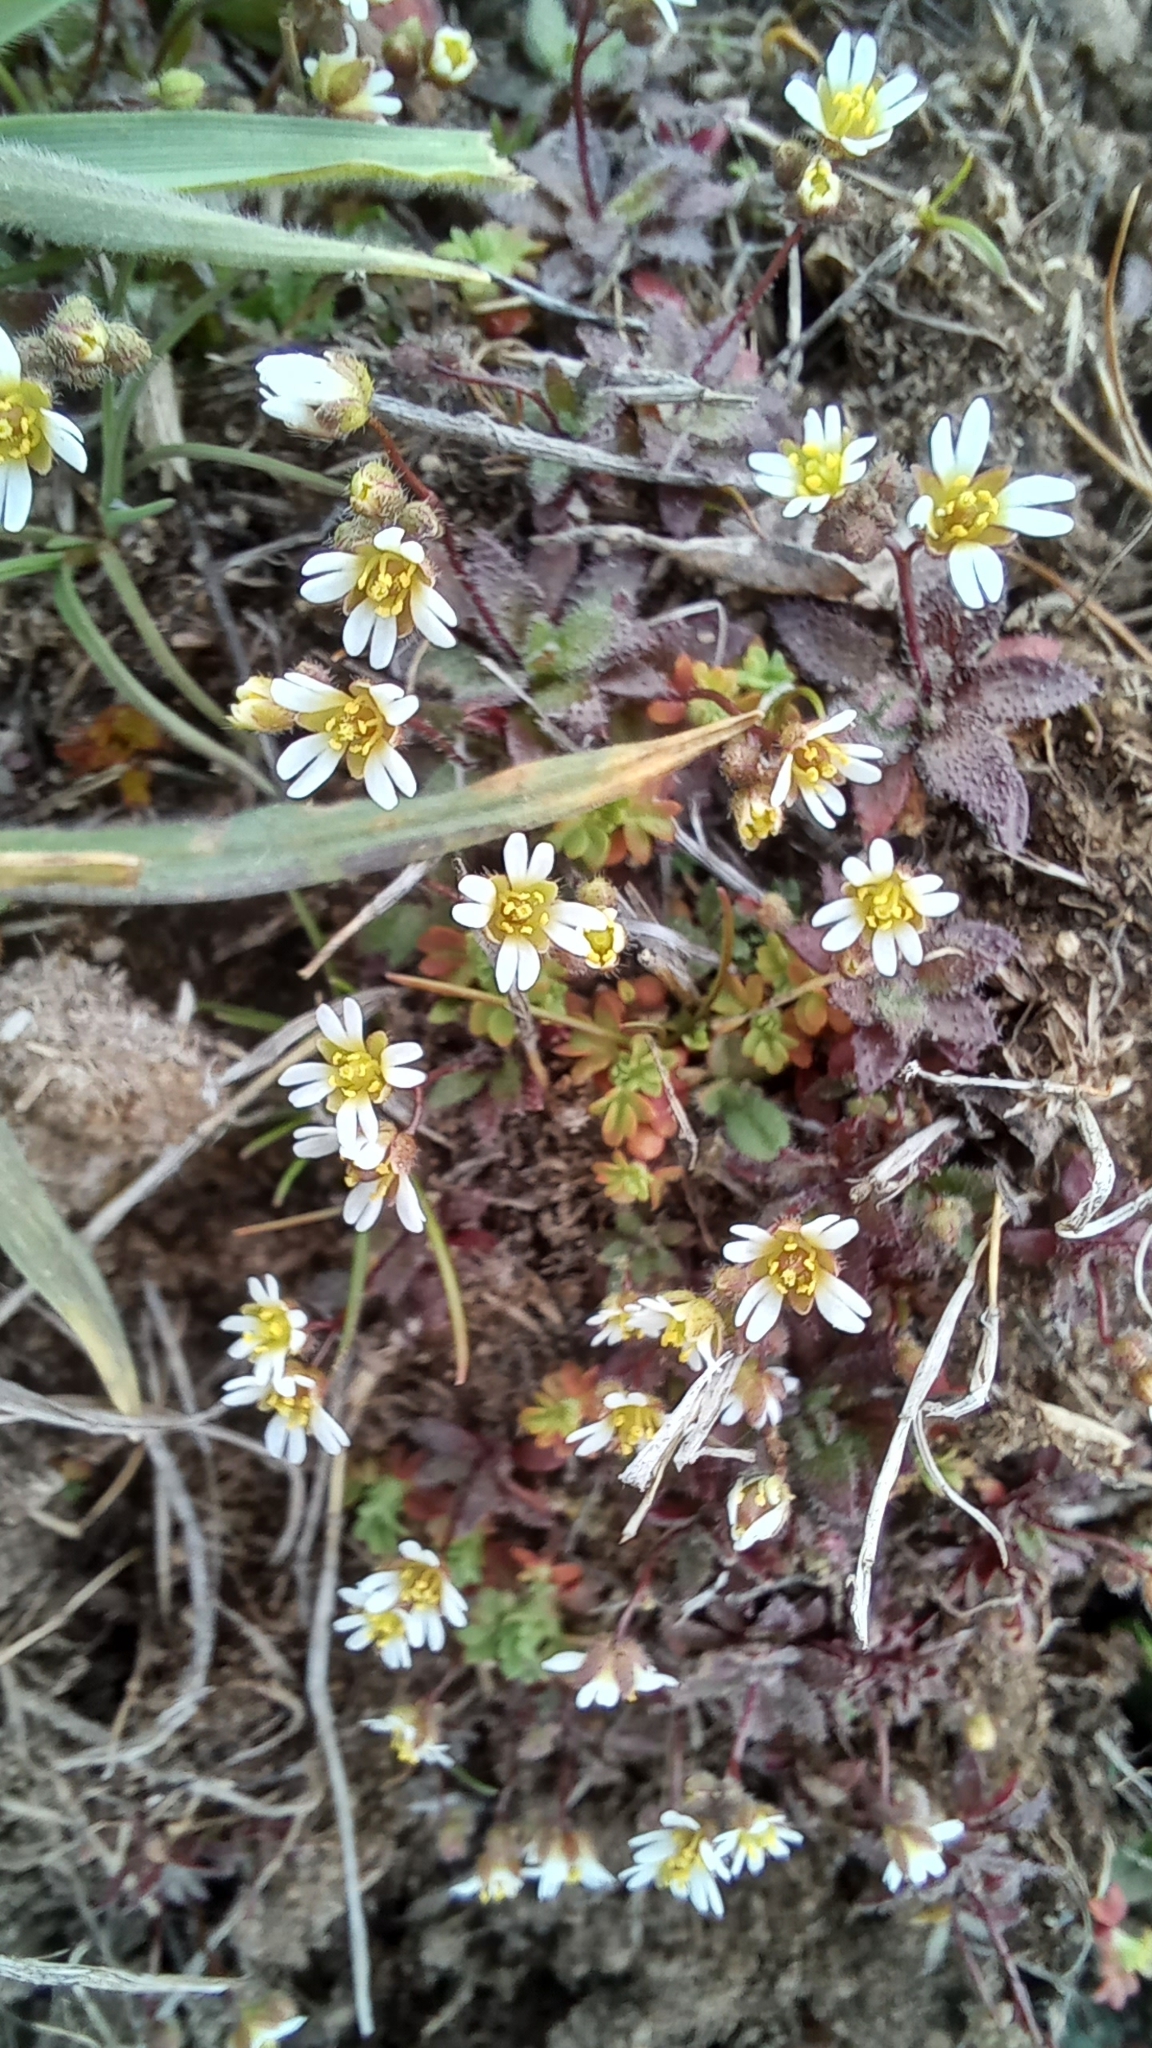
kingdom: Plantae
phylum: Tracheophyta
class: Magnoliopsida
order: Brassicales
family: Brassicaceae
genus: Draba
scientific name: Draba verna
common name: Spring draba
